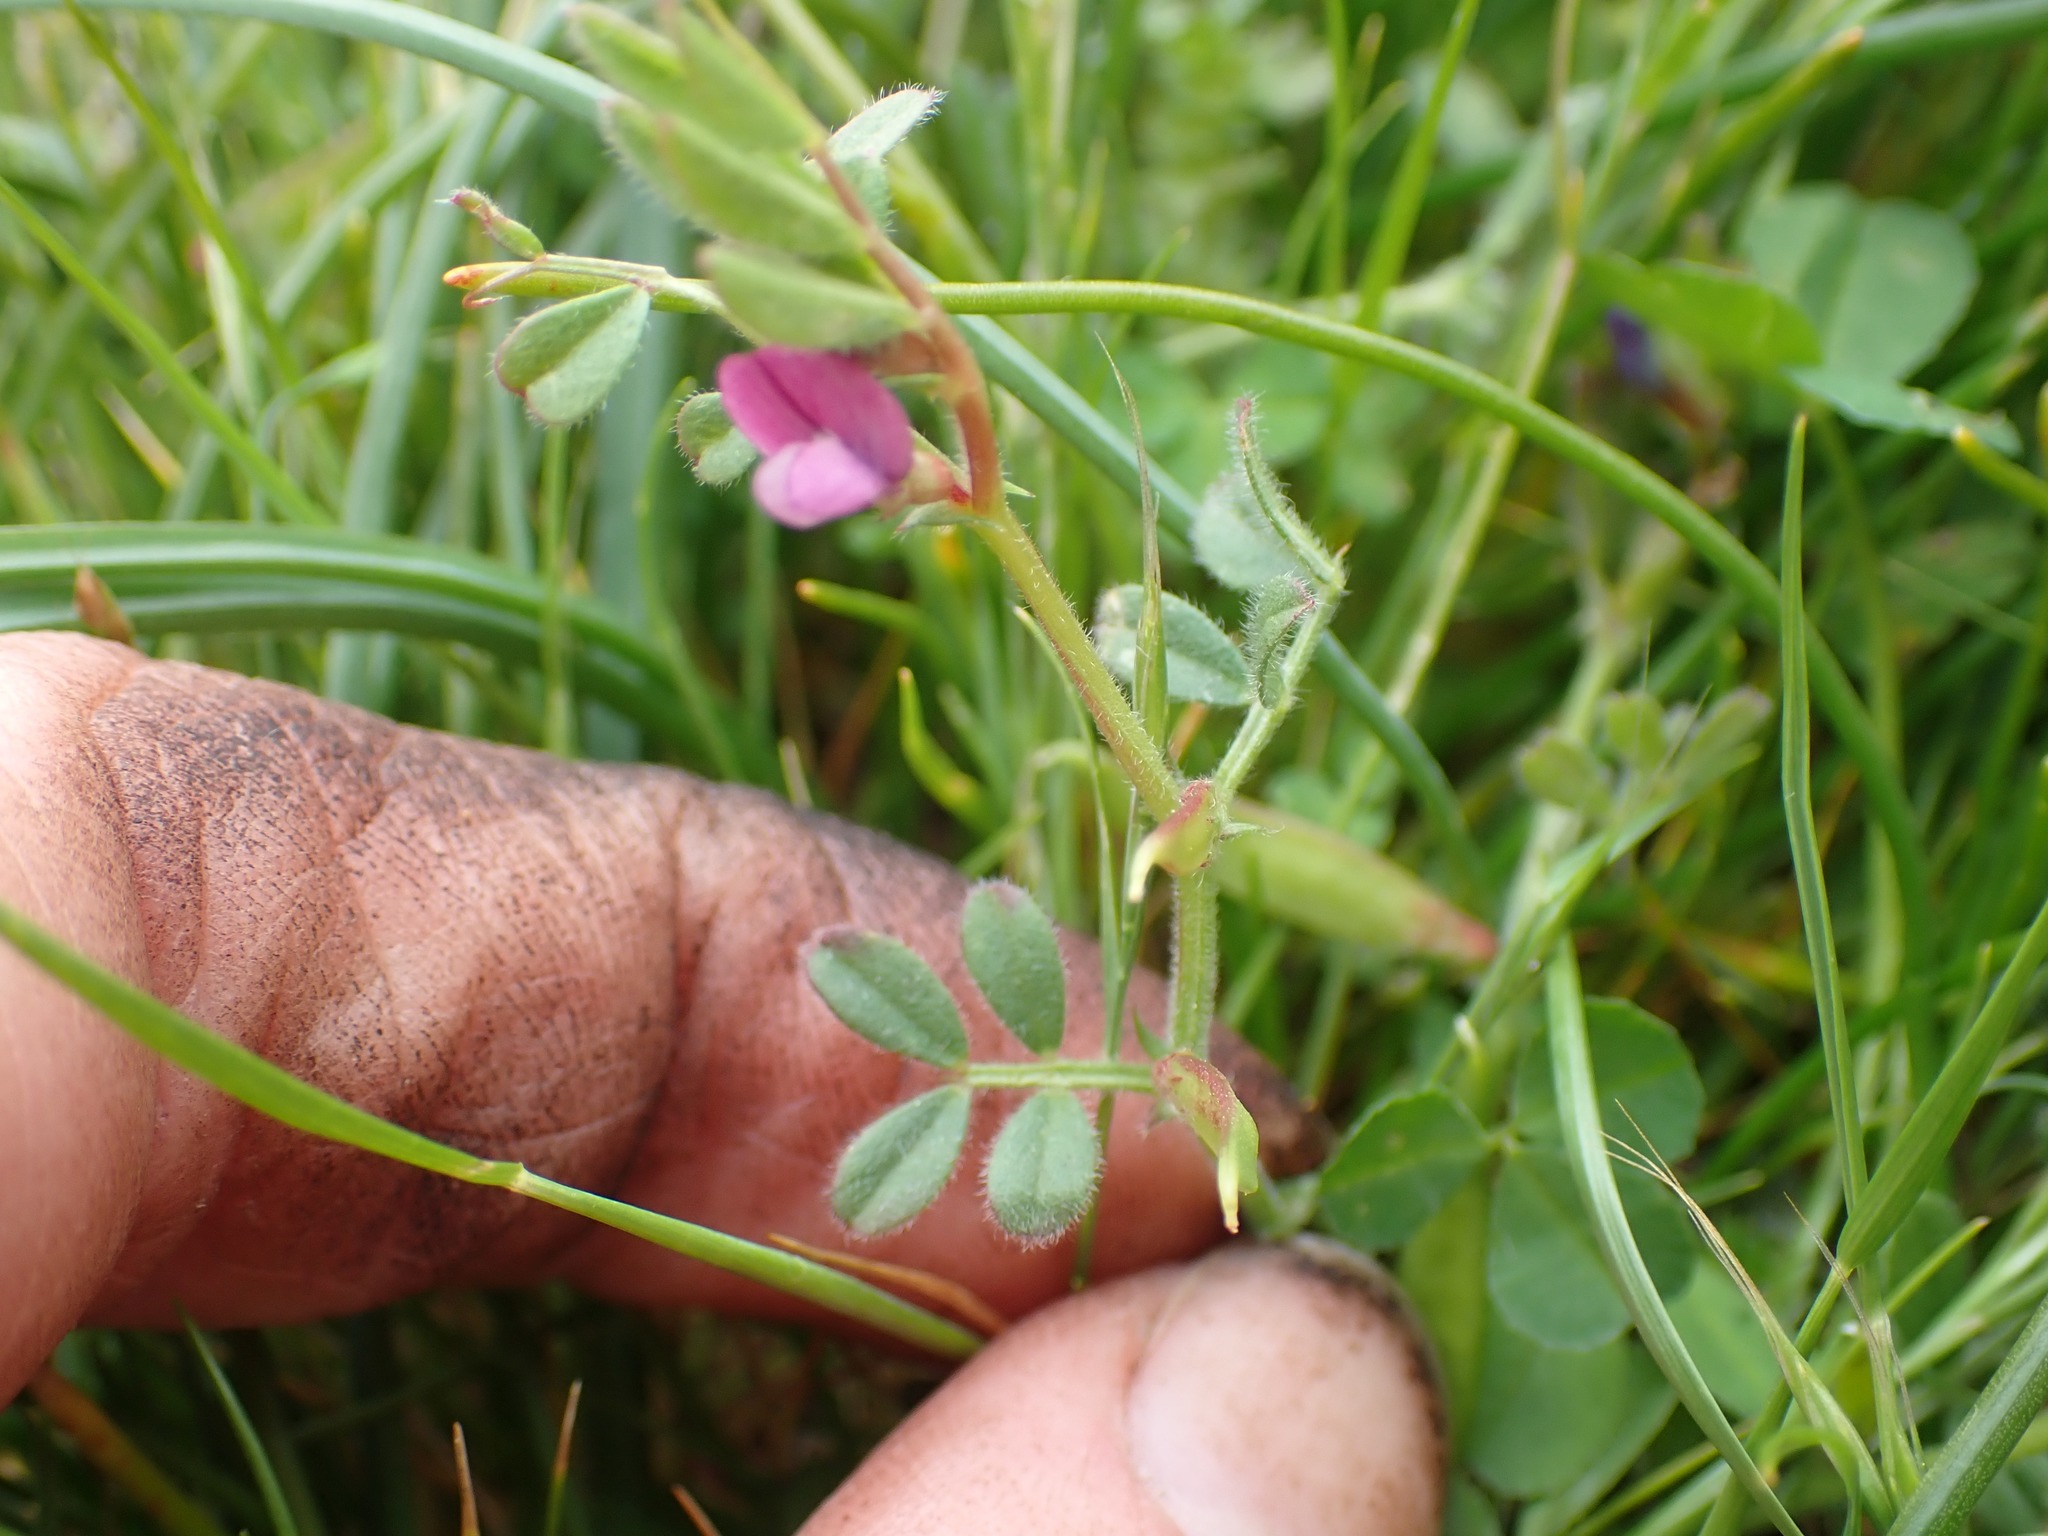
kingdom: Plantae
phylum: Tracheophyta
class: Magnoliopsida
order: Fabales
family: Fabaceae
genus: Vicia
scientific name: Vicia lathyroides
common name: Spring vetch
